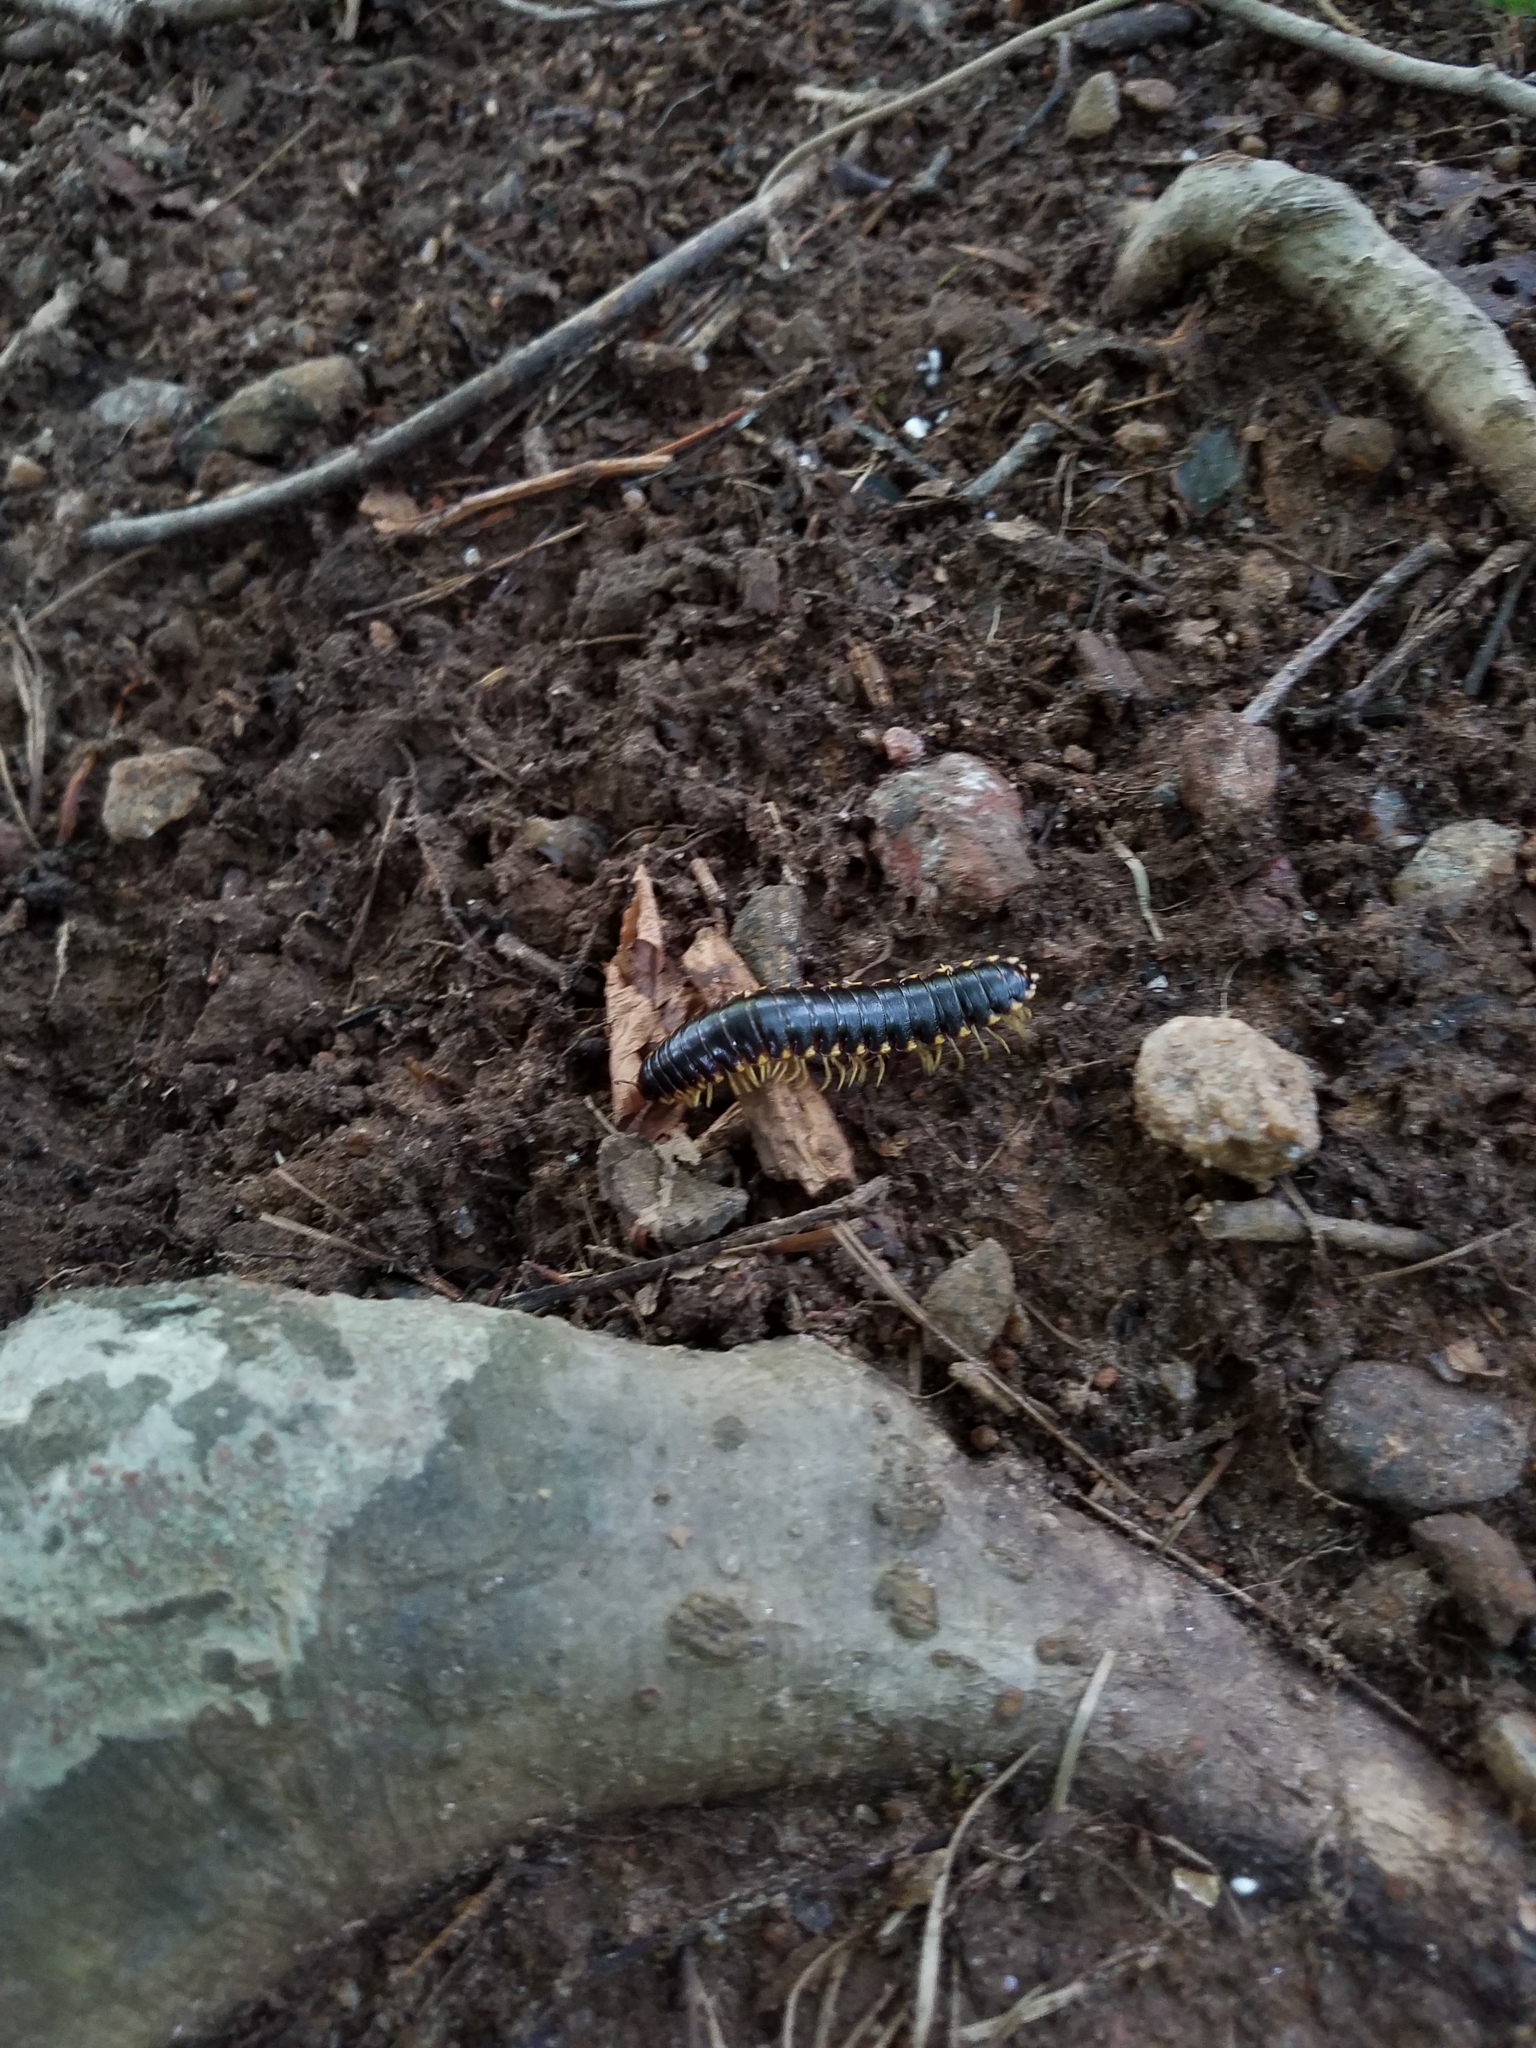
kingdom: Animalia
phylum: Arthropoda
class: Diplopoda
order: Polydesmida
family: Xystodesmidae
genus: Apheloria
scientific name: Apheloria tigana
